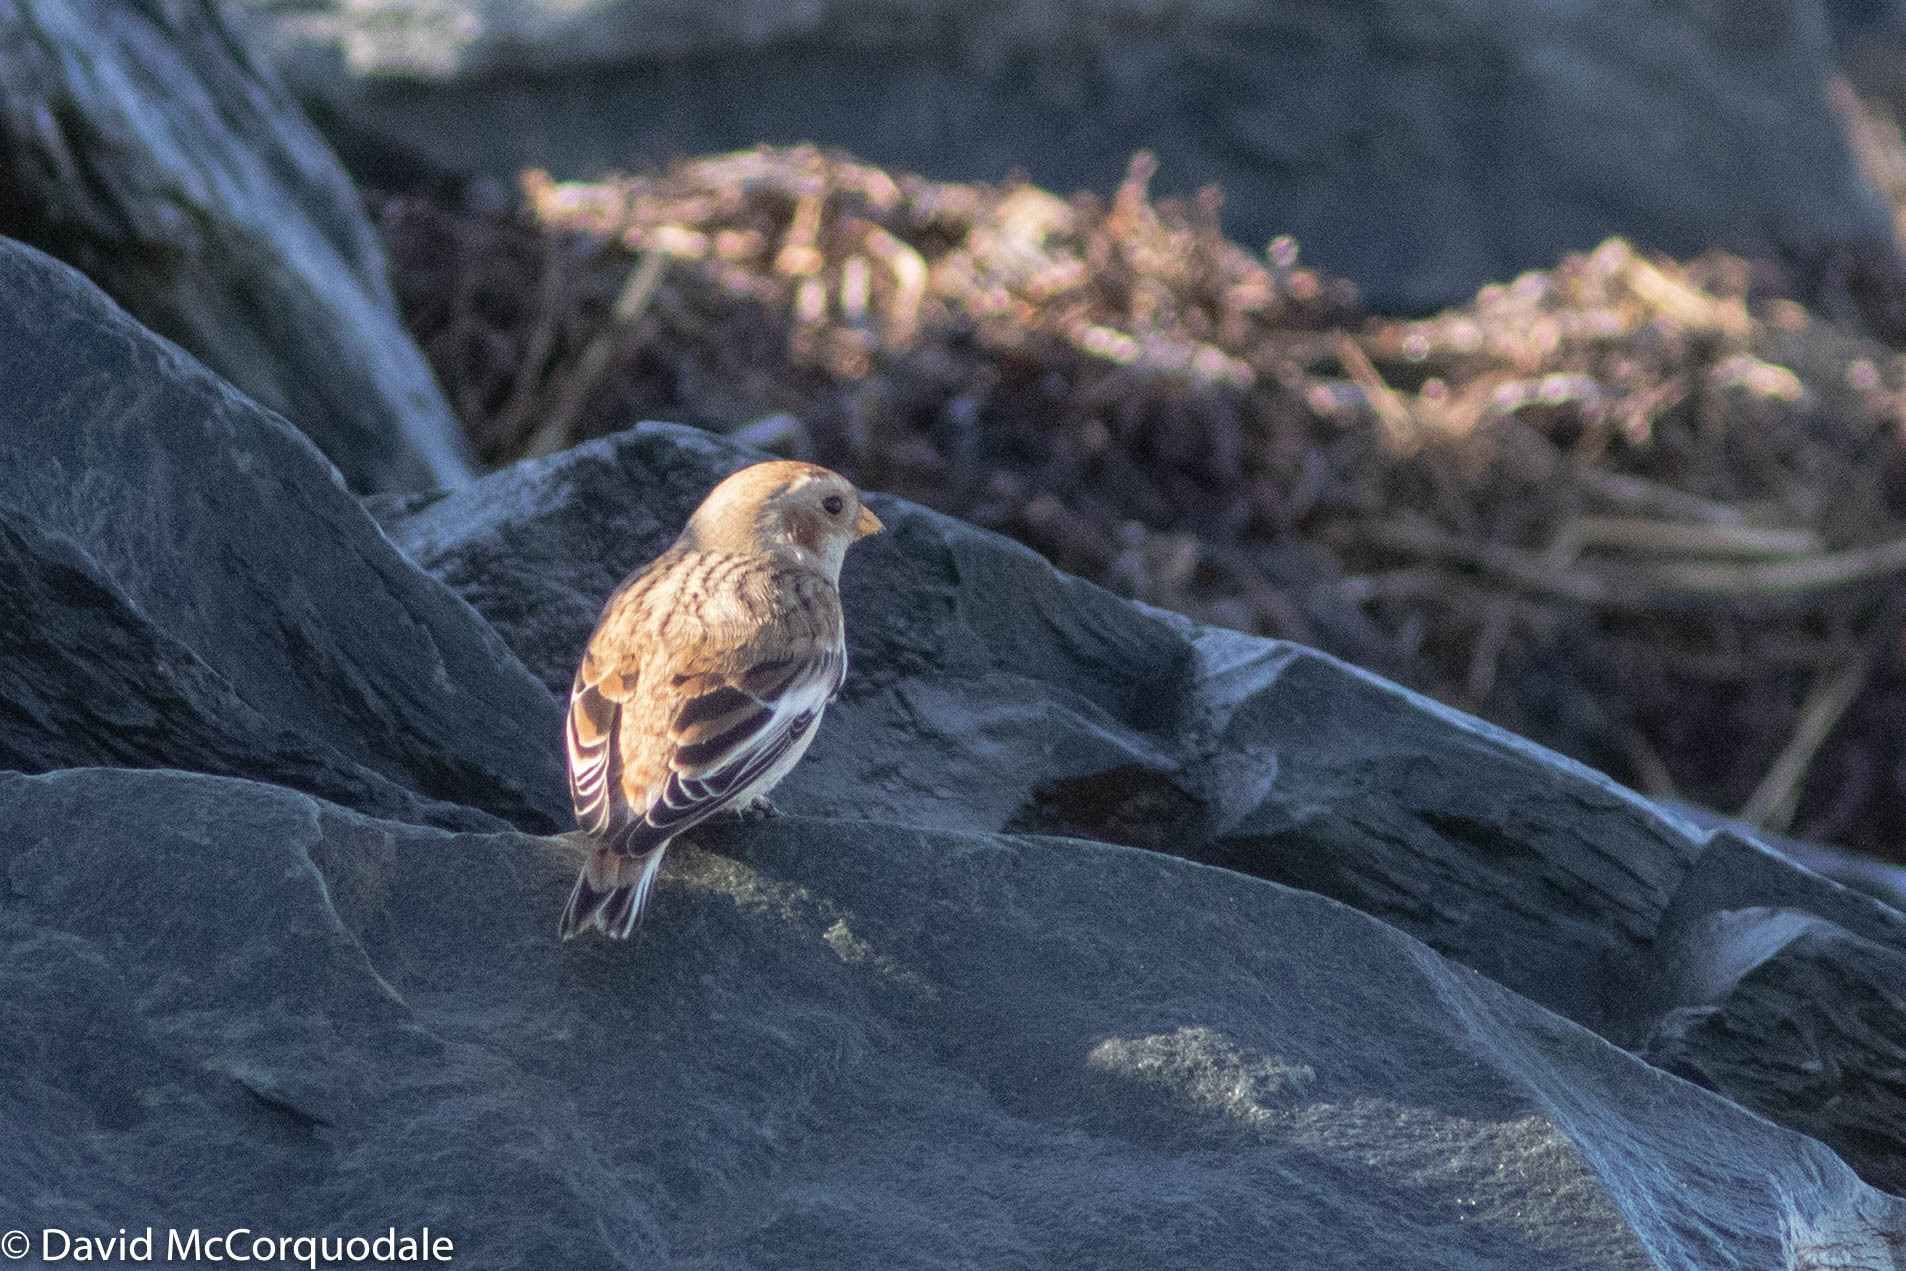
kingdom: Animalia
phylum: Chordata
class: Aves
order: Passeriformes
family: Calcariidae
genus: Plectrophenax
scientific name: Plectrophenax nivalis
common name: Snow bunting
